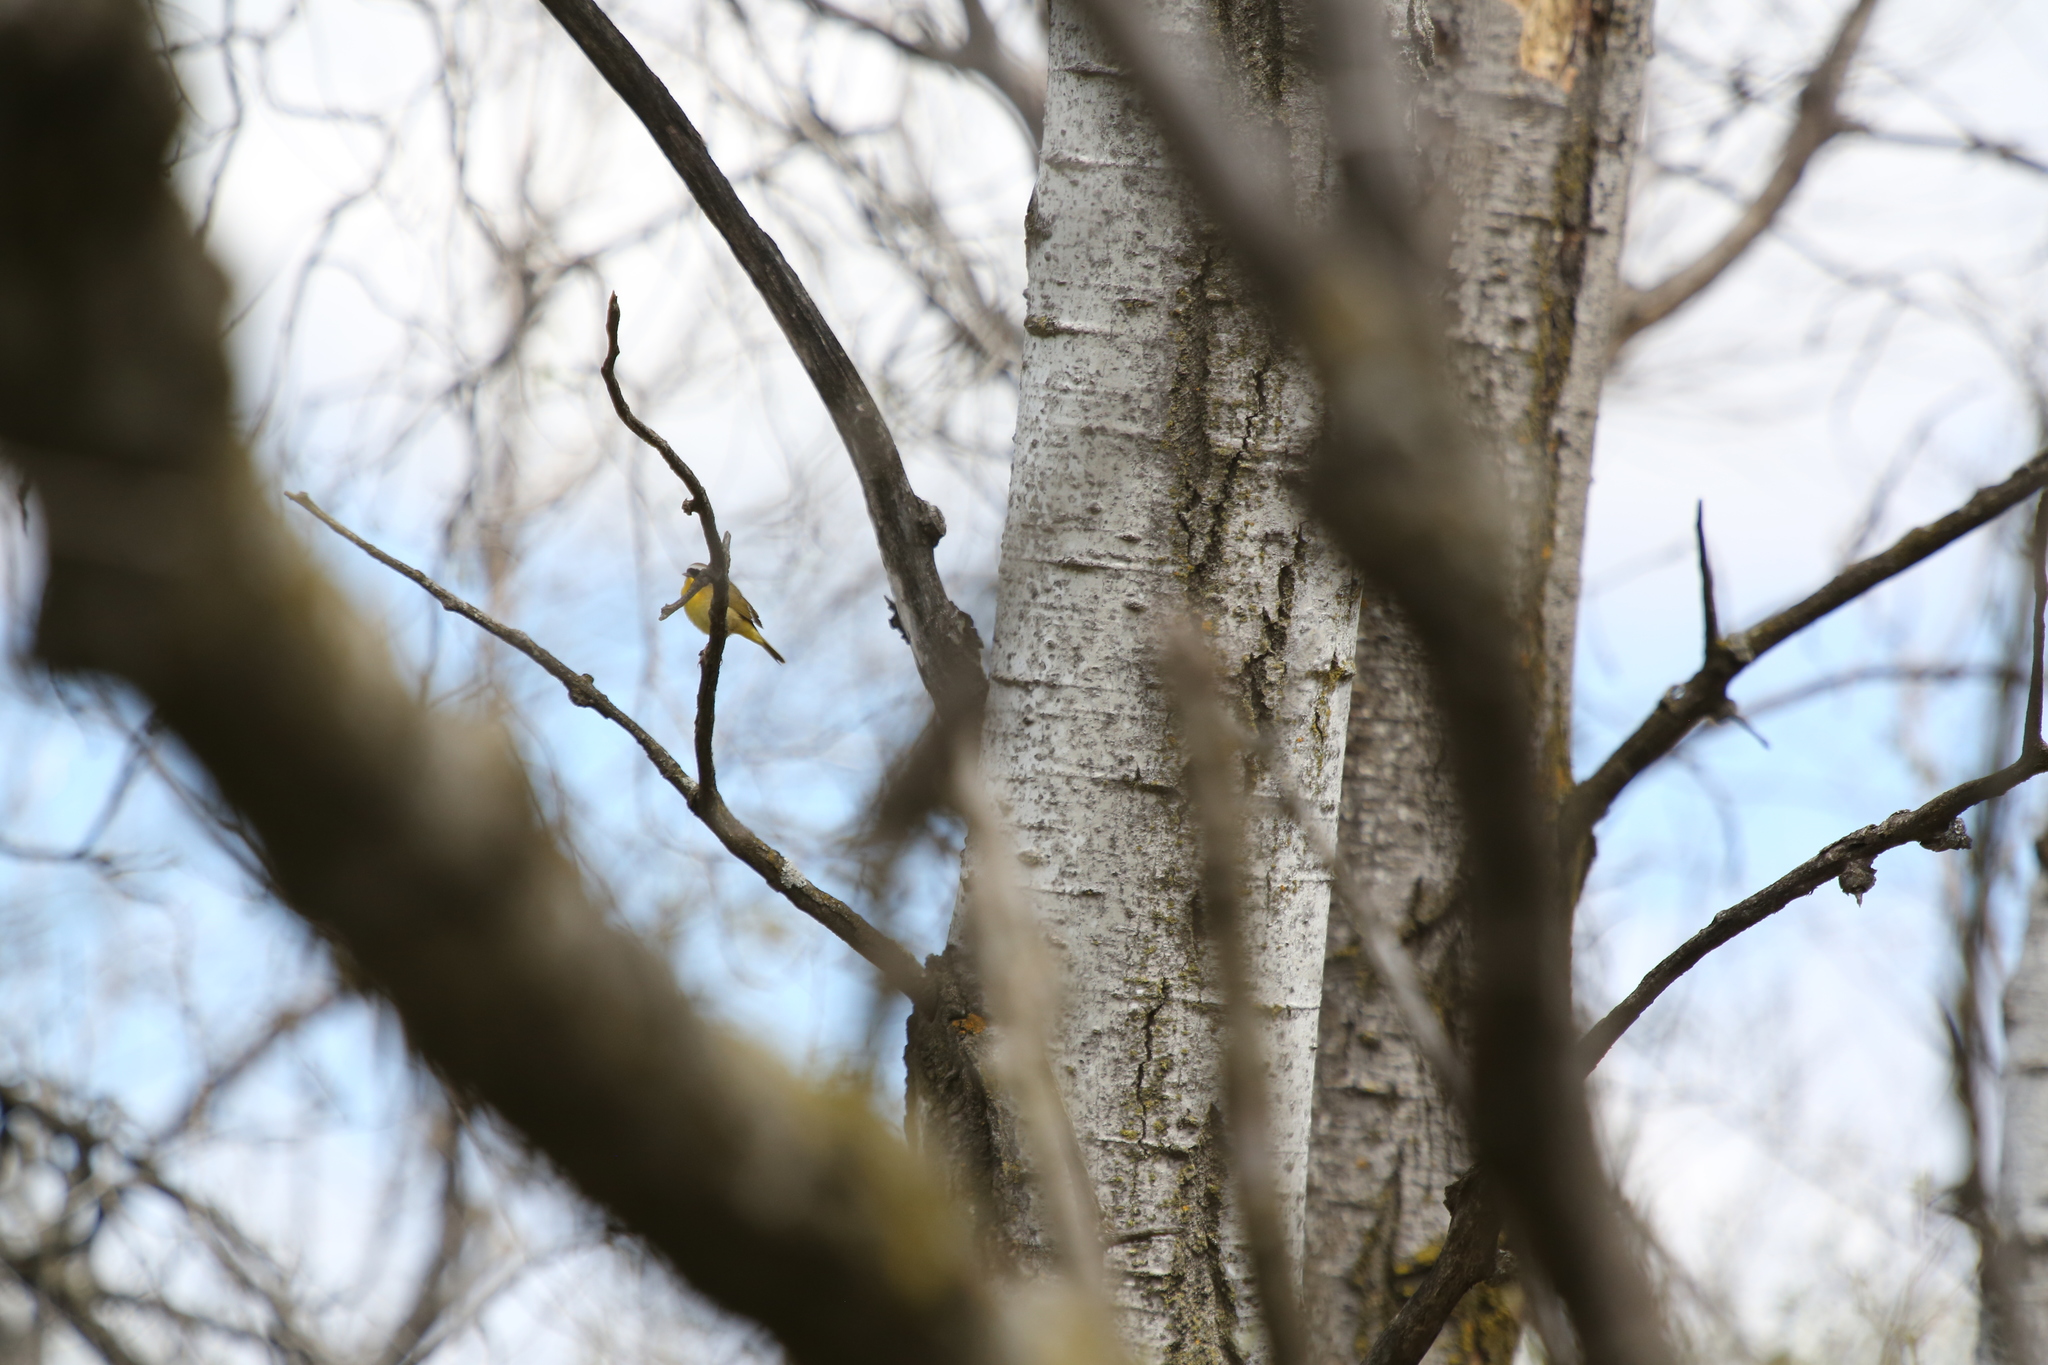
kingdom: Animalia
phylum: Chordata
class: Aves
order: Passeriformes
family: Parulidae
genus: Geothlypis
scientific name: Geothlypis trichas
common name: Common yellowthroat
